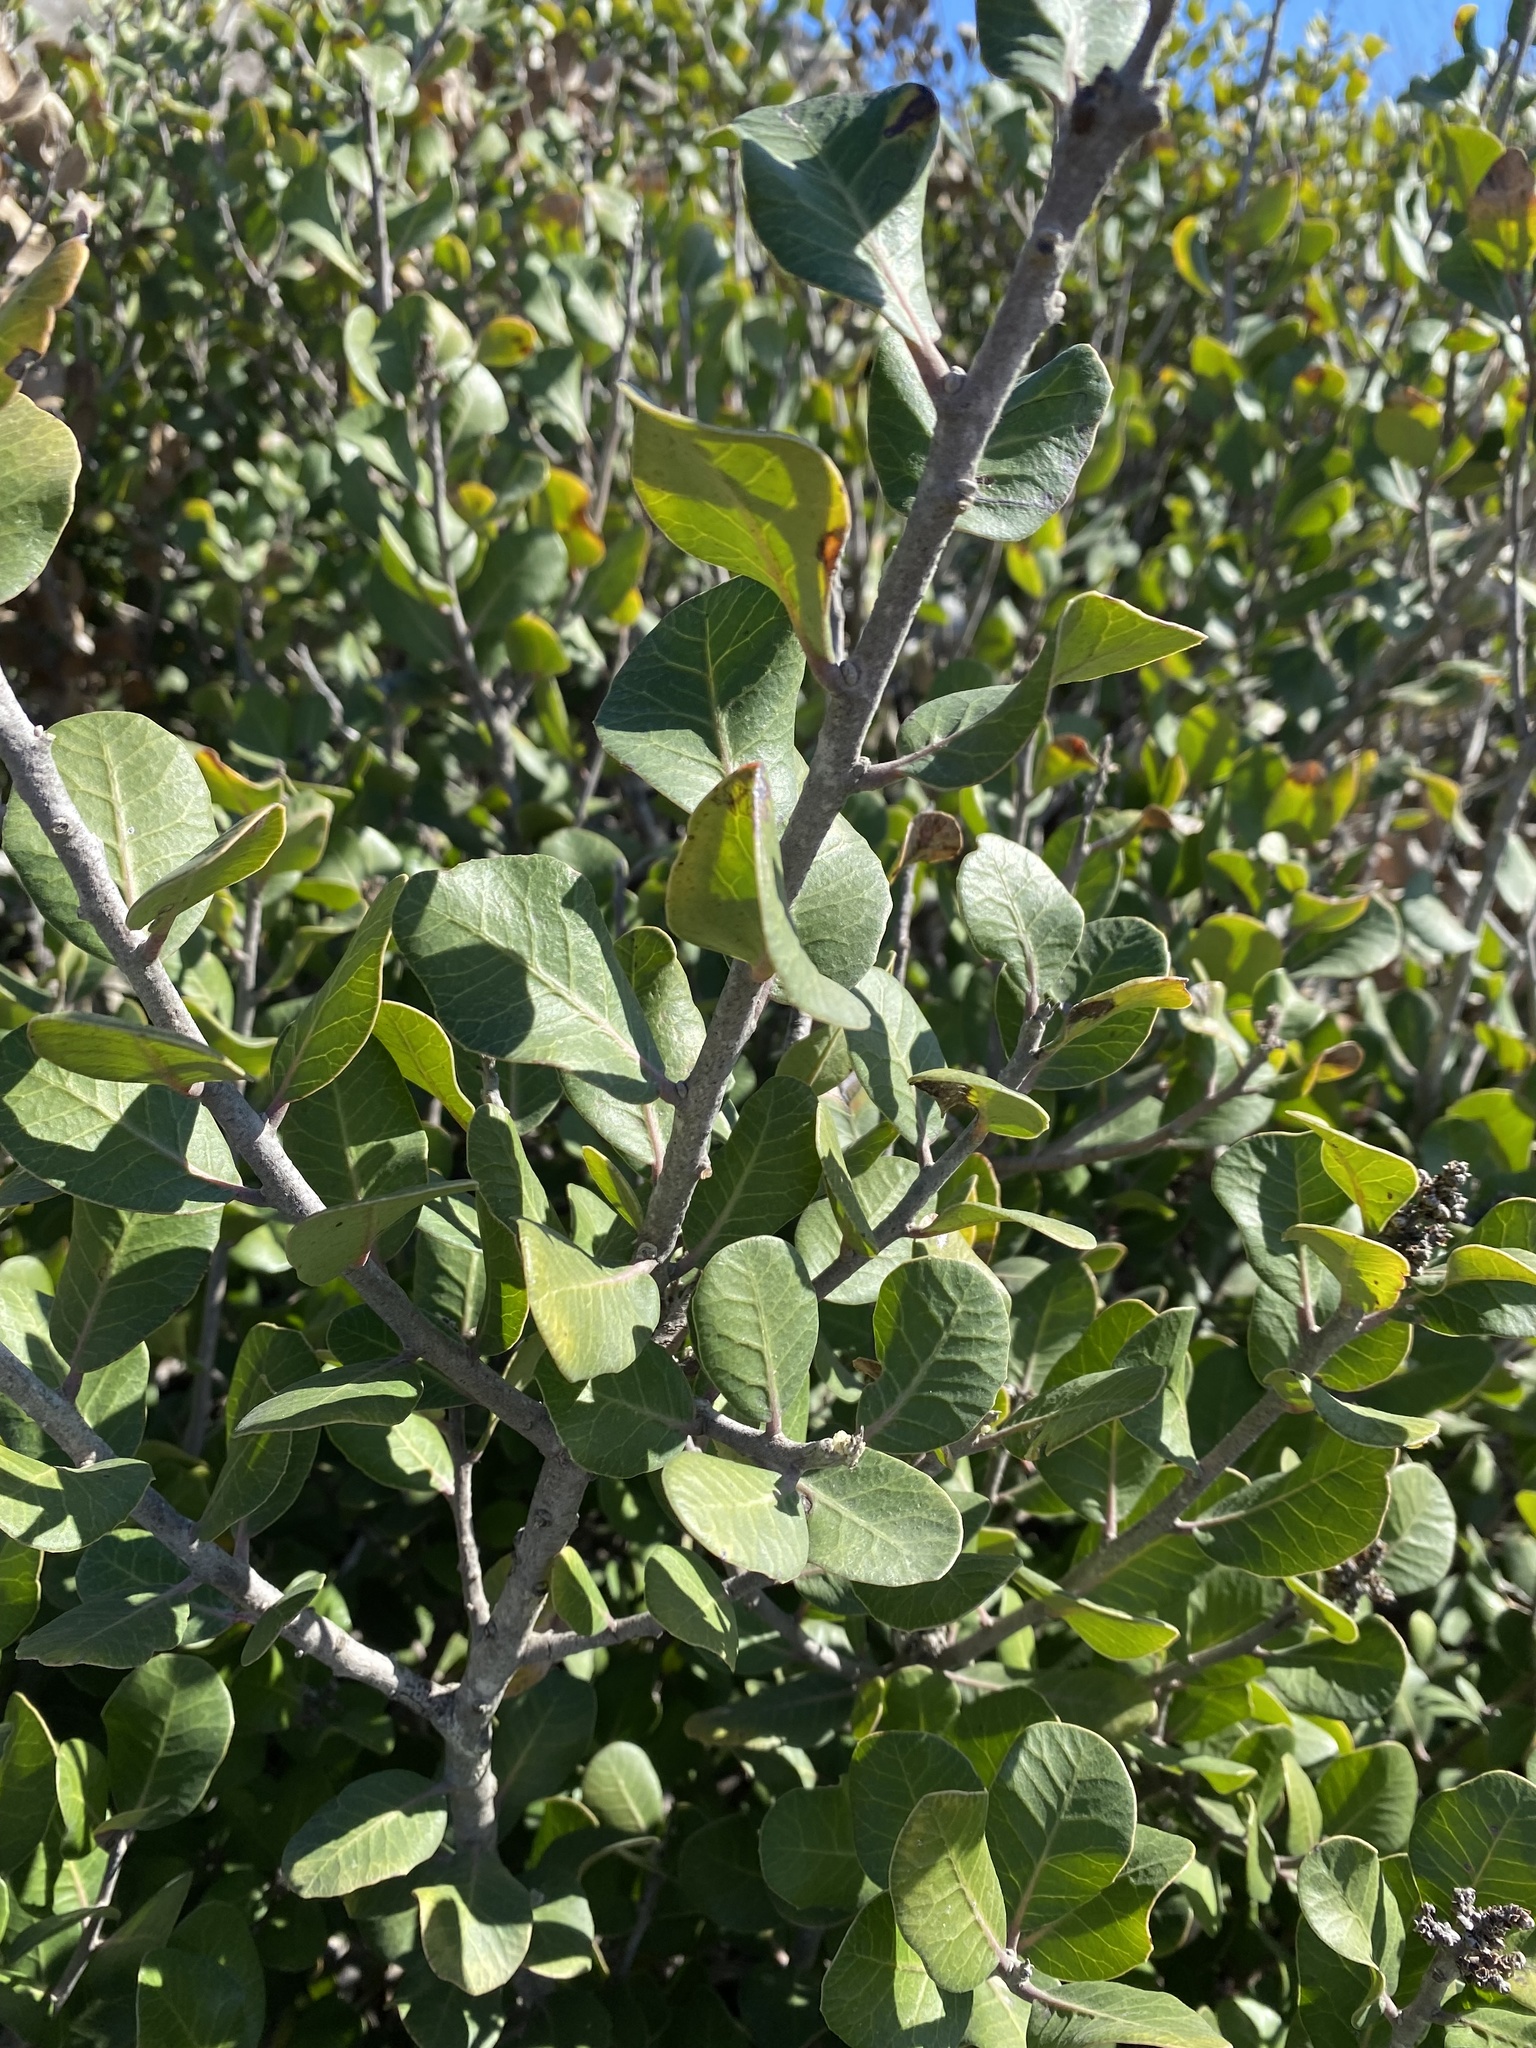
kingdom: Plantae
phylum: Tracheophyta
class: Magnoliopsida
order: Sapindales
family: Anacardiaceae
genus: Rhus
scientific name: Rhus integrifolia
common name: Lemonade sumac
